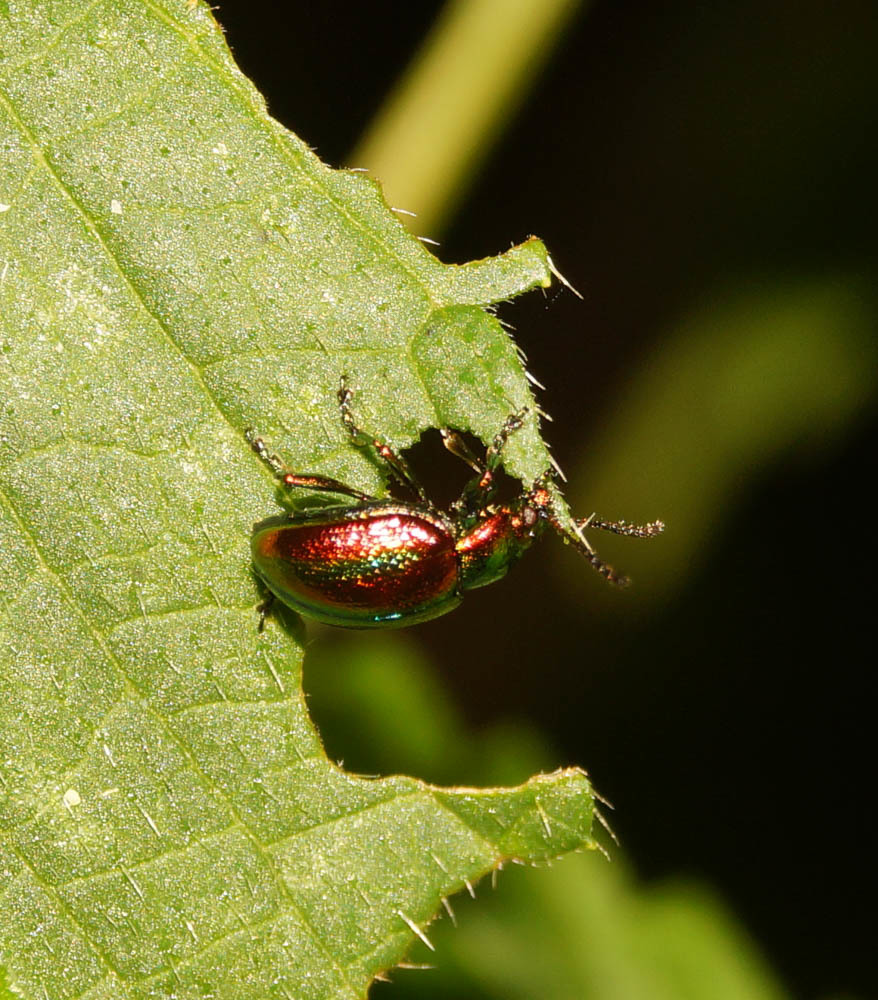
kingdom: Animalia
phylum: Arthropoda
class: Insecta
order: Coleoptera
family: Chrysomelidae
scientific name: Chrysomelidae
